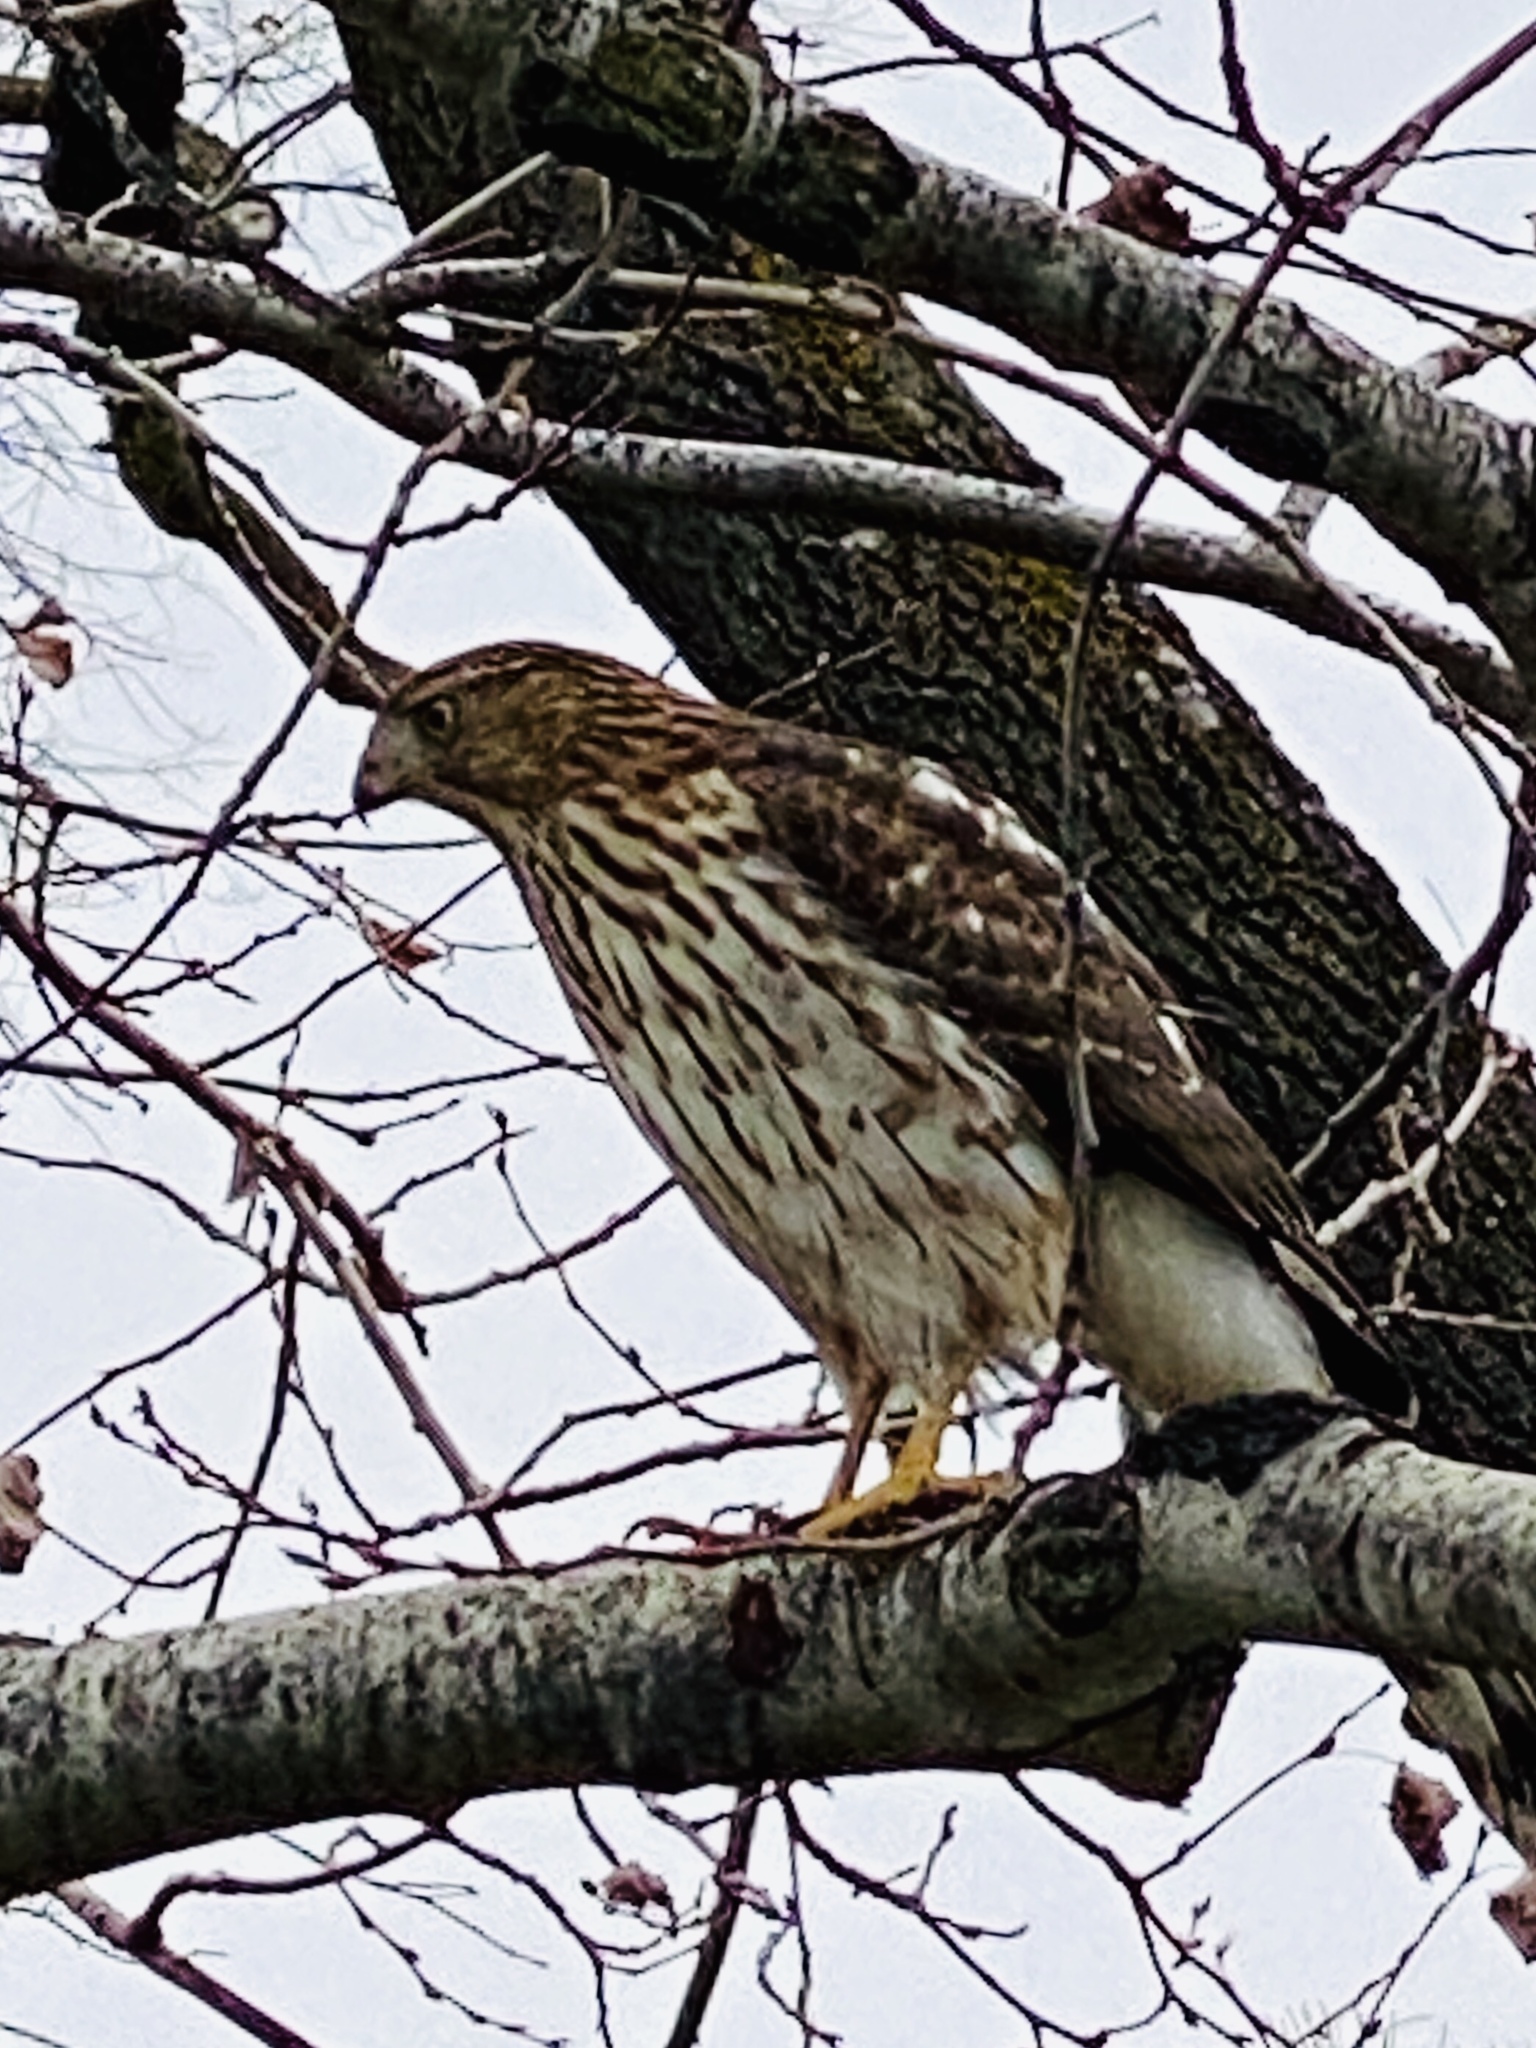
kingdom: Animalia
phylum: Chordata
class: Aves
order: Accipitriformes
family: Accipitridae
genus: Accipiter
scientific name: Accipiter cooperii
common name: Cooper's hawk
